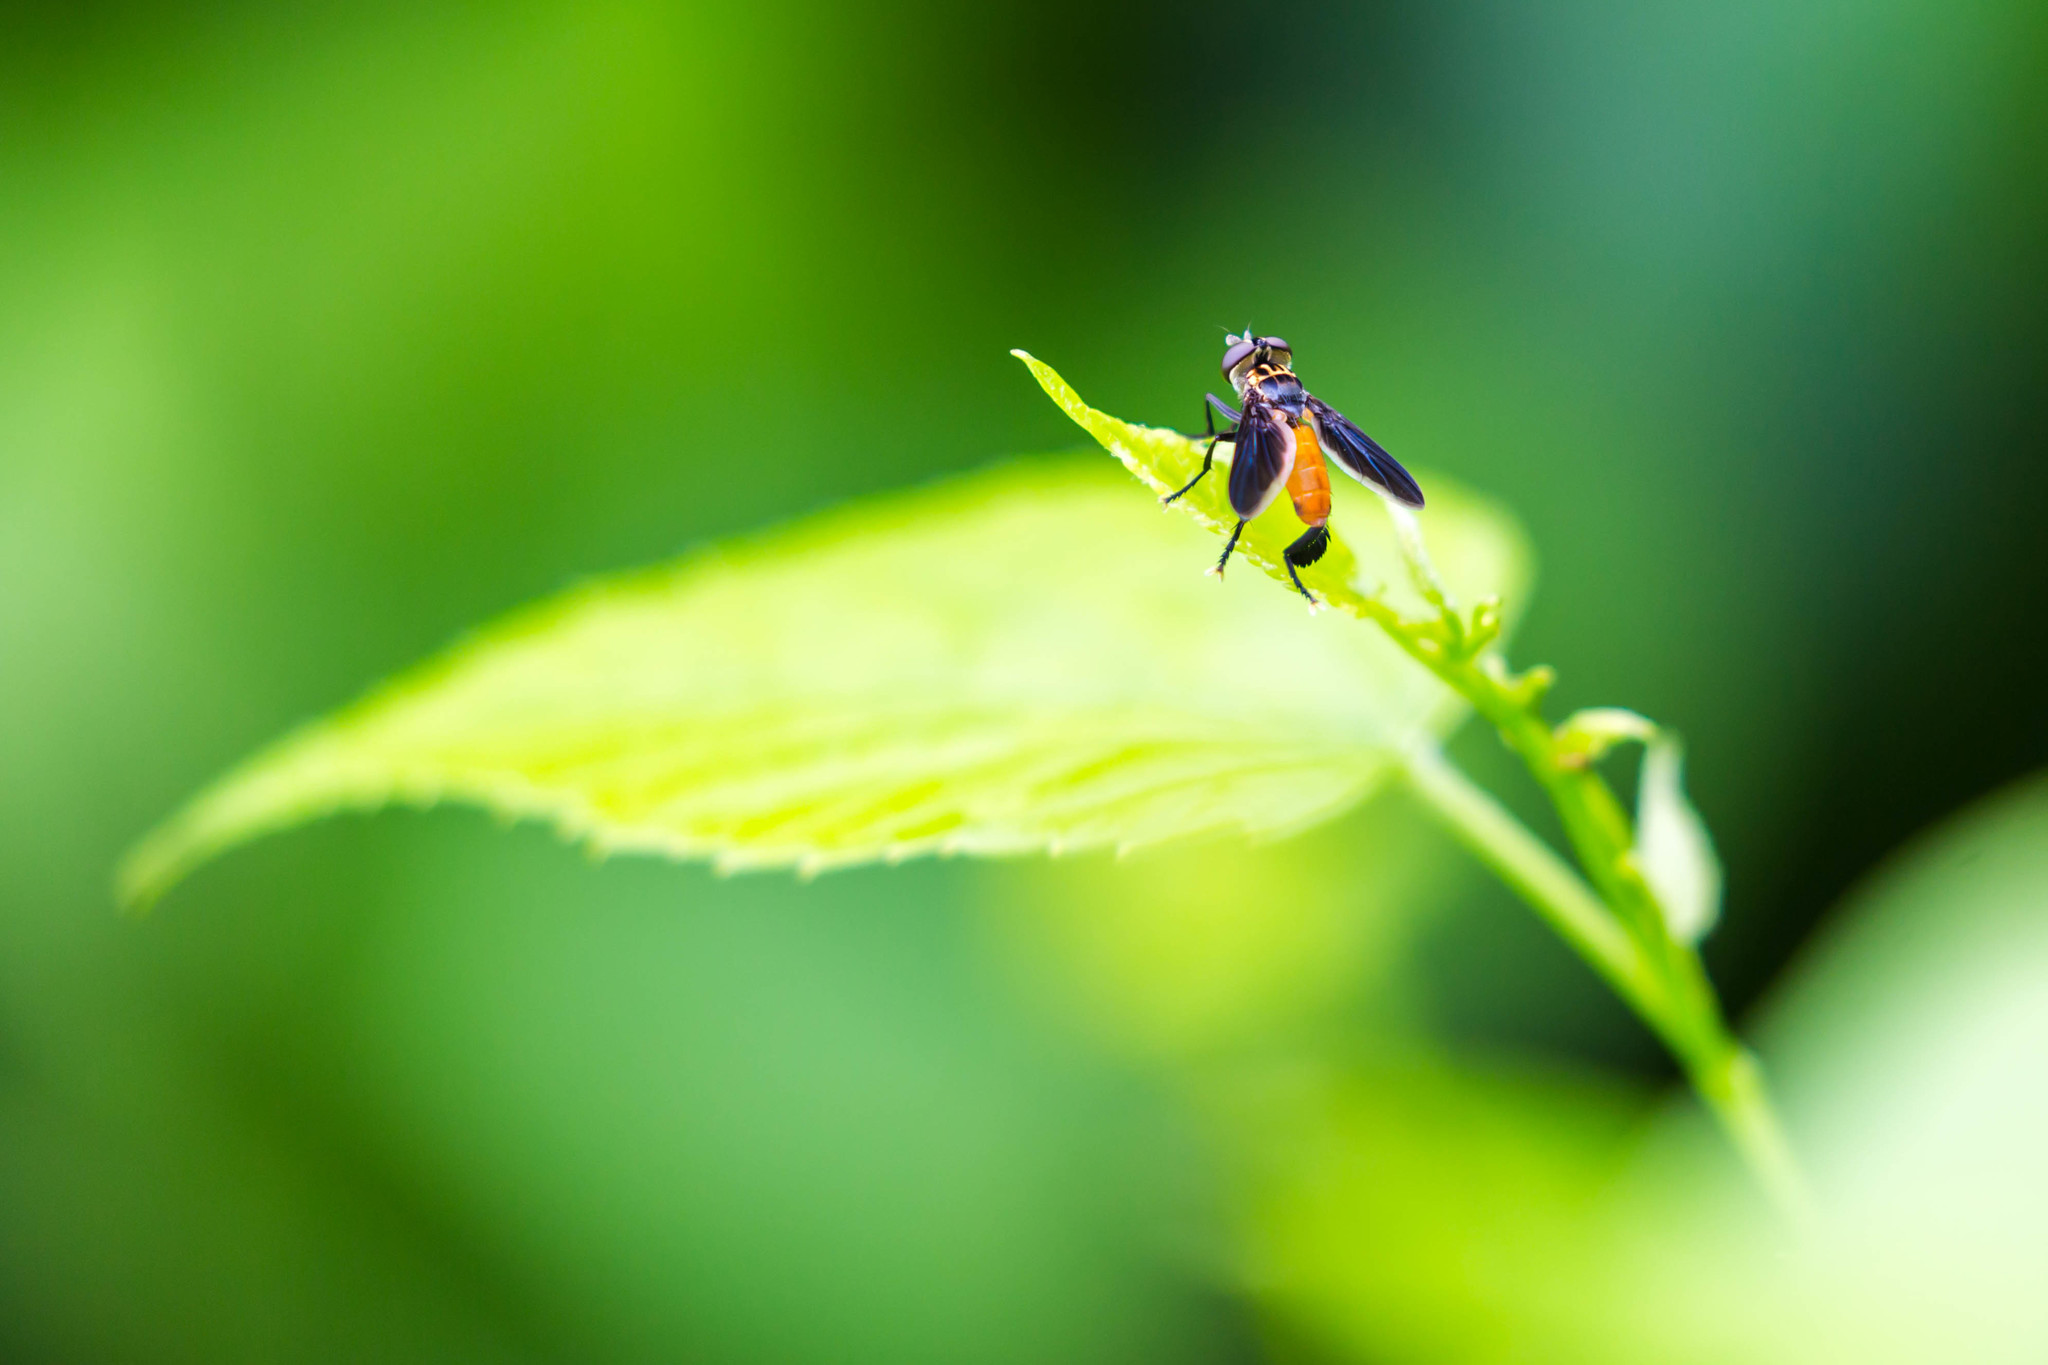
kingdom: Animalia
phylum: Arthropoda
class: Insecta
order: Diptera
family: Tachinidae
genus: Trichopoda
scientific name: Trichopoda pennipes
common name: Tachinid fly
